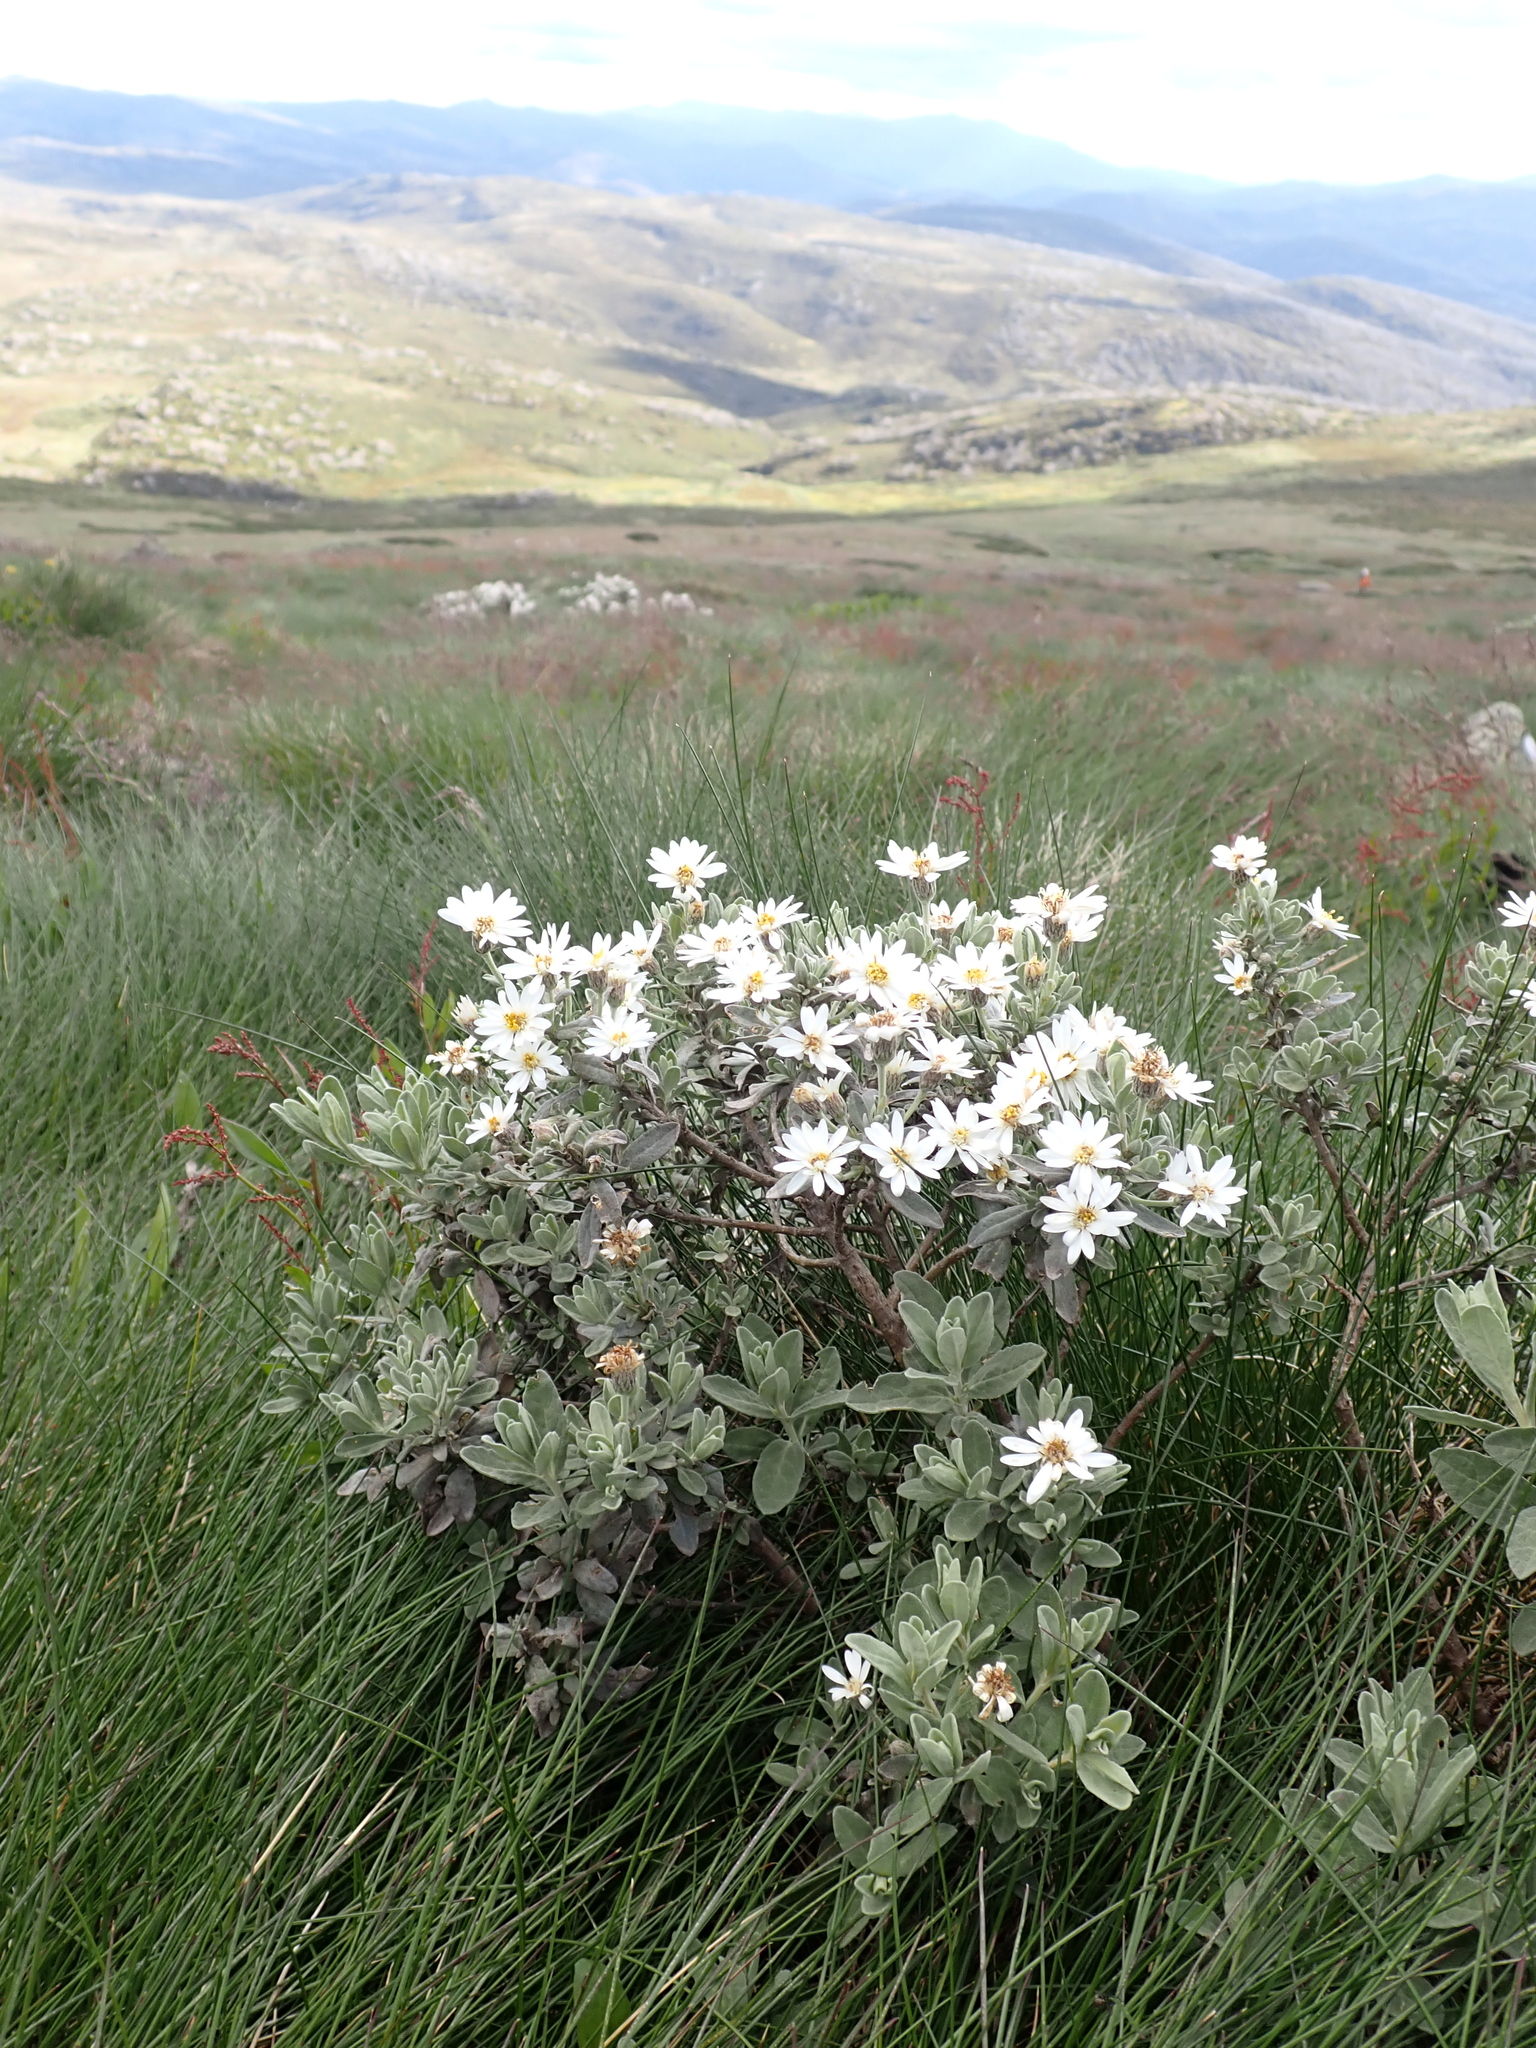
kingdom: Plantae
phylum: Tracheophyta
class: Magnoliopsida
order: Asterales
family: Asteraceae
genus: Olearia
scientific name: Olearia phlogopappa
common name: Alpine daisybush
